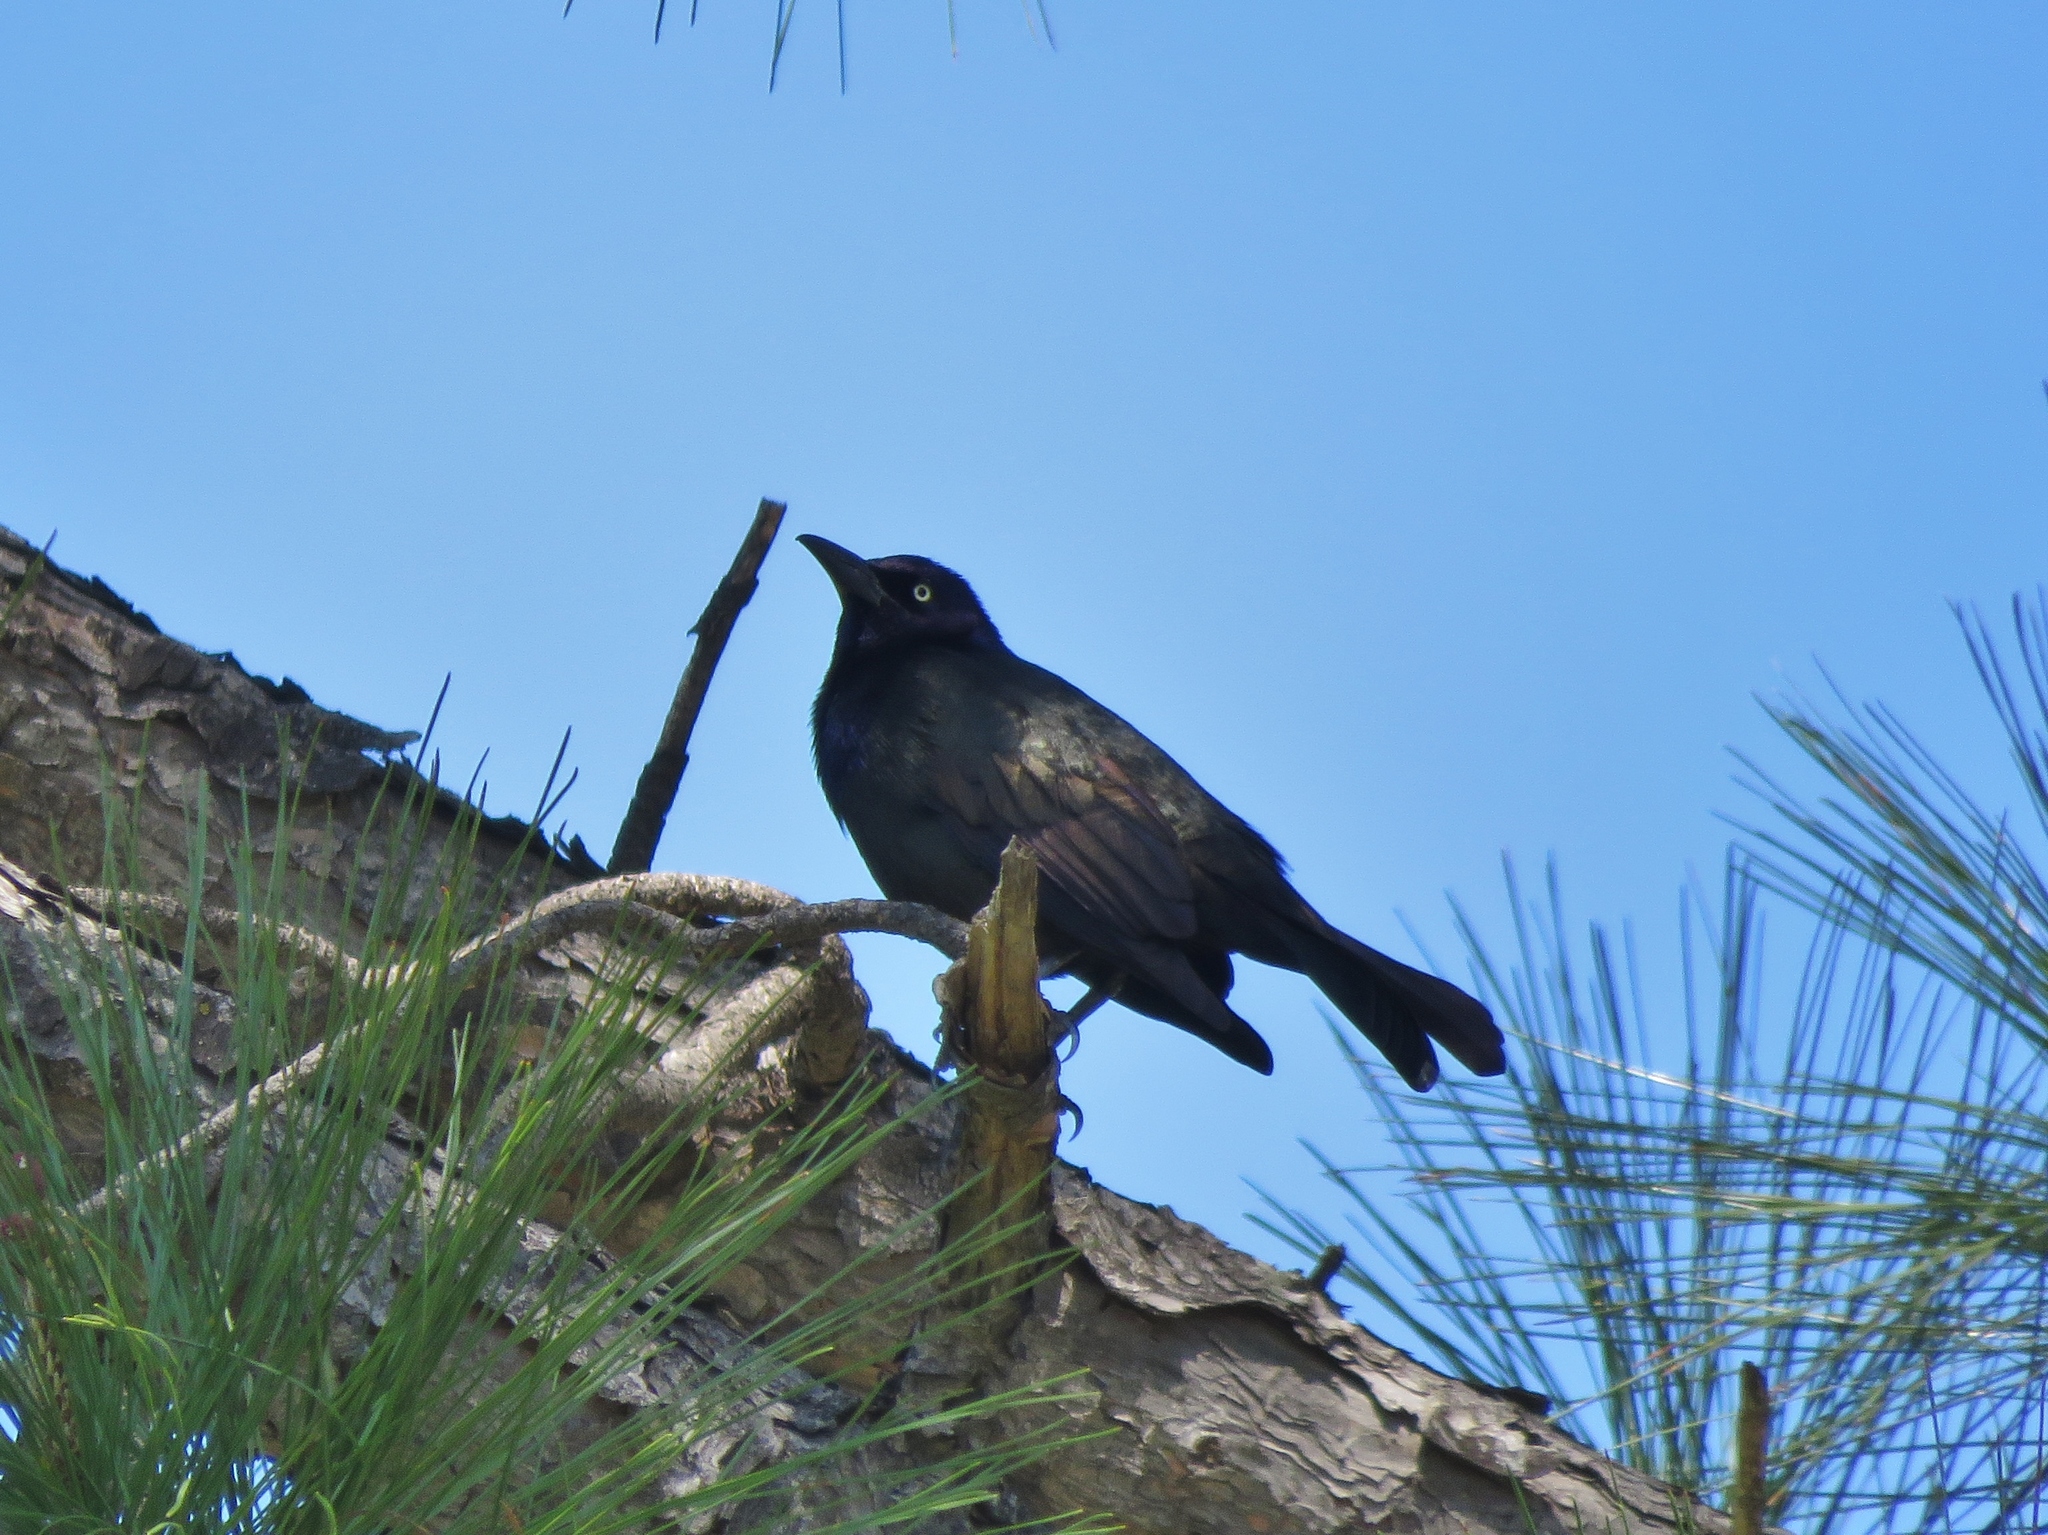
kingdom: Animalia
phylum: Chordata
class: Aves
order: Passeriformes
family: Icteridae
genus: Quiscalus
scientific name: Quiscalus quiscula
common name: Common grackle
